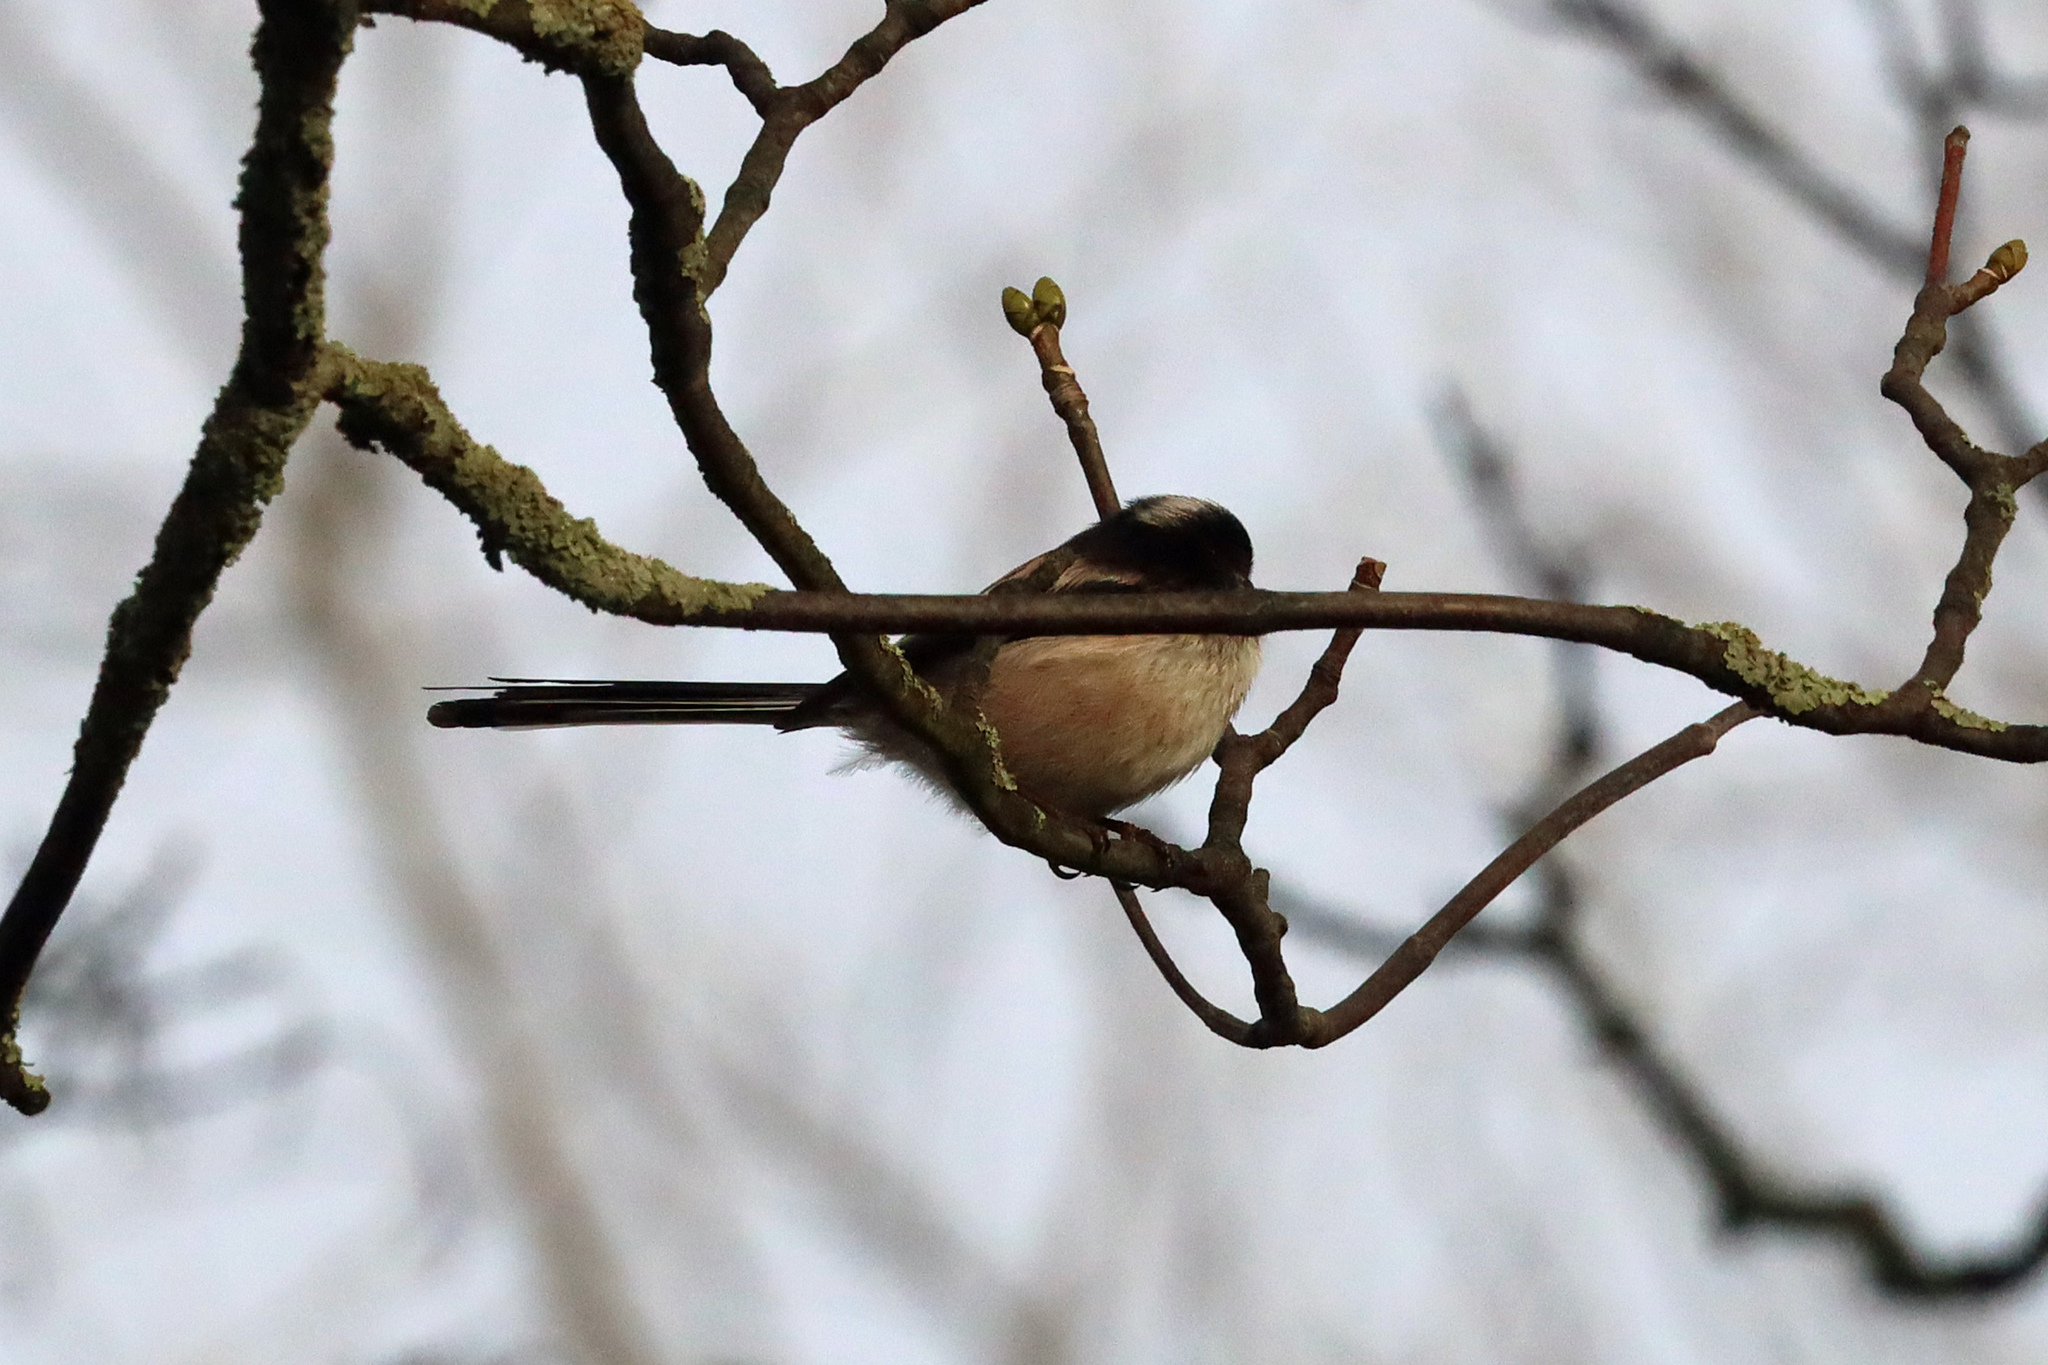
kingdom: Animalia
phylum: Chordata
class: Aves
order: Passeriformes
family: Aegithalidae
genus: Aegithalos
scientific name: Aegithalos caudatus
